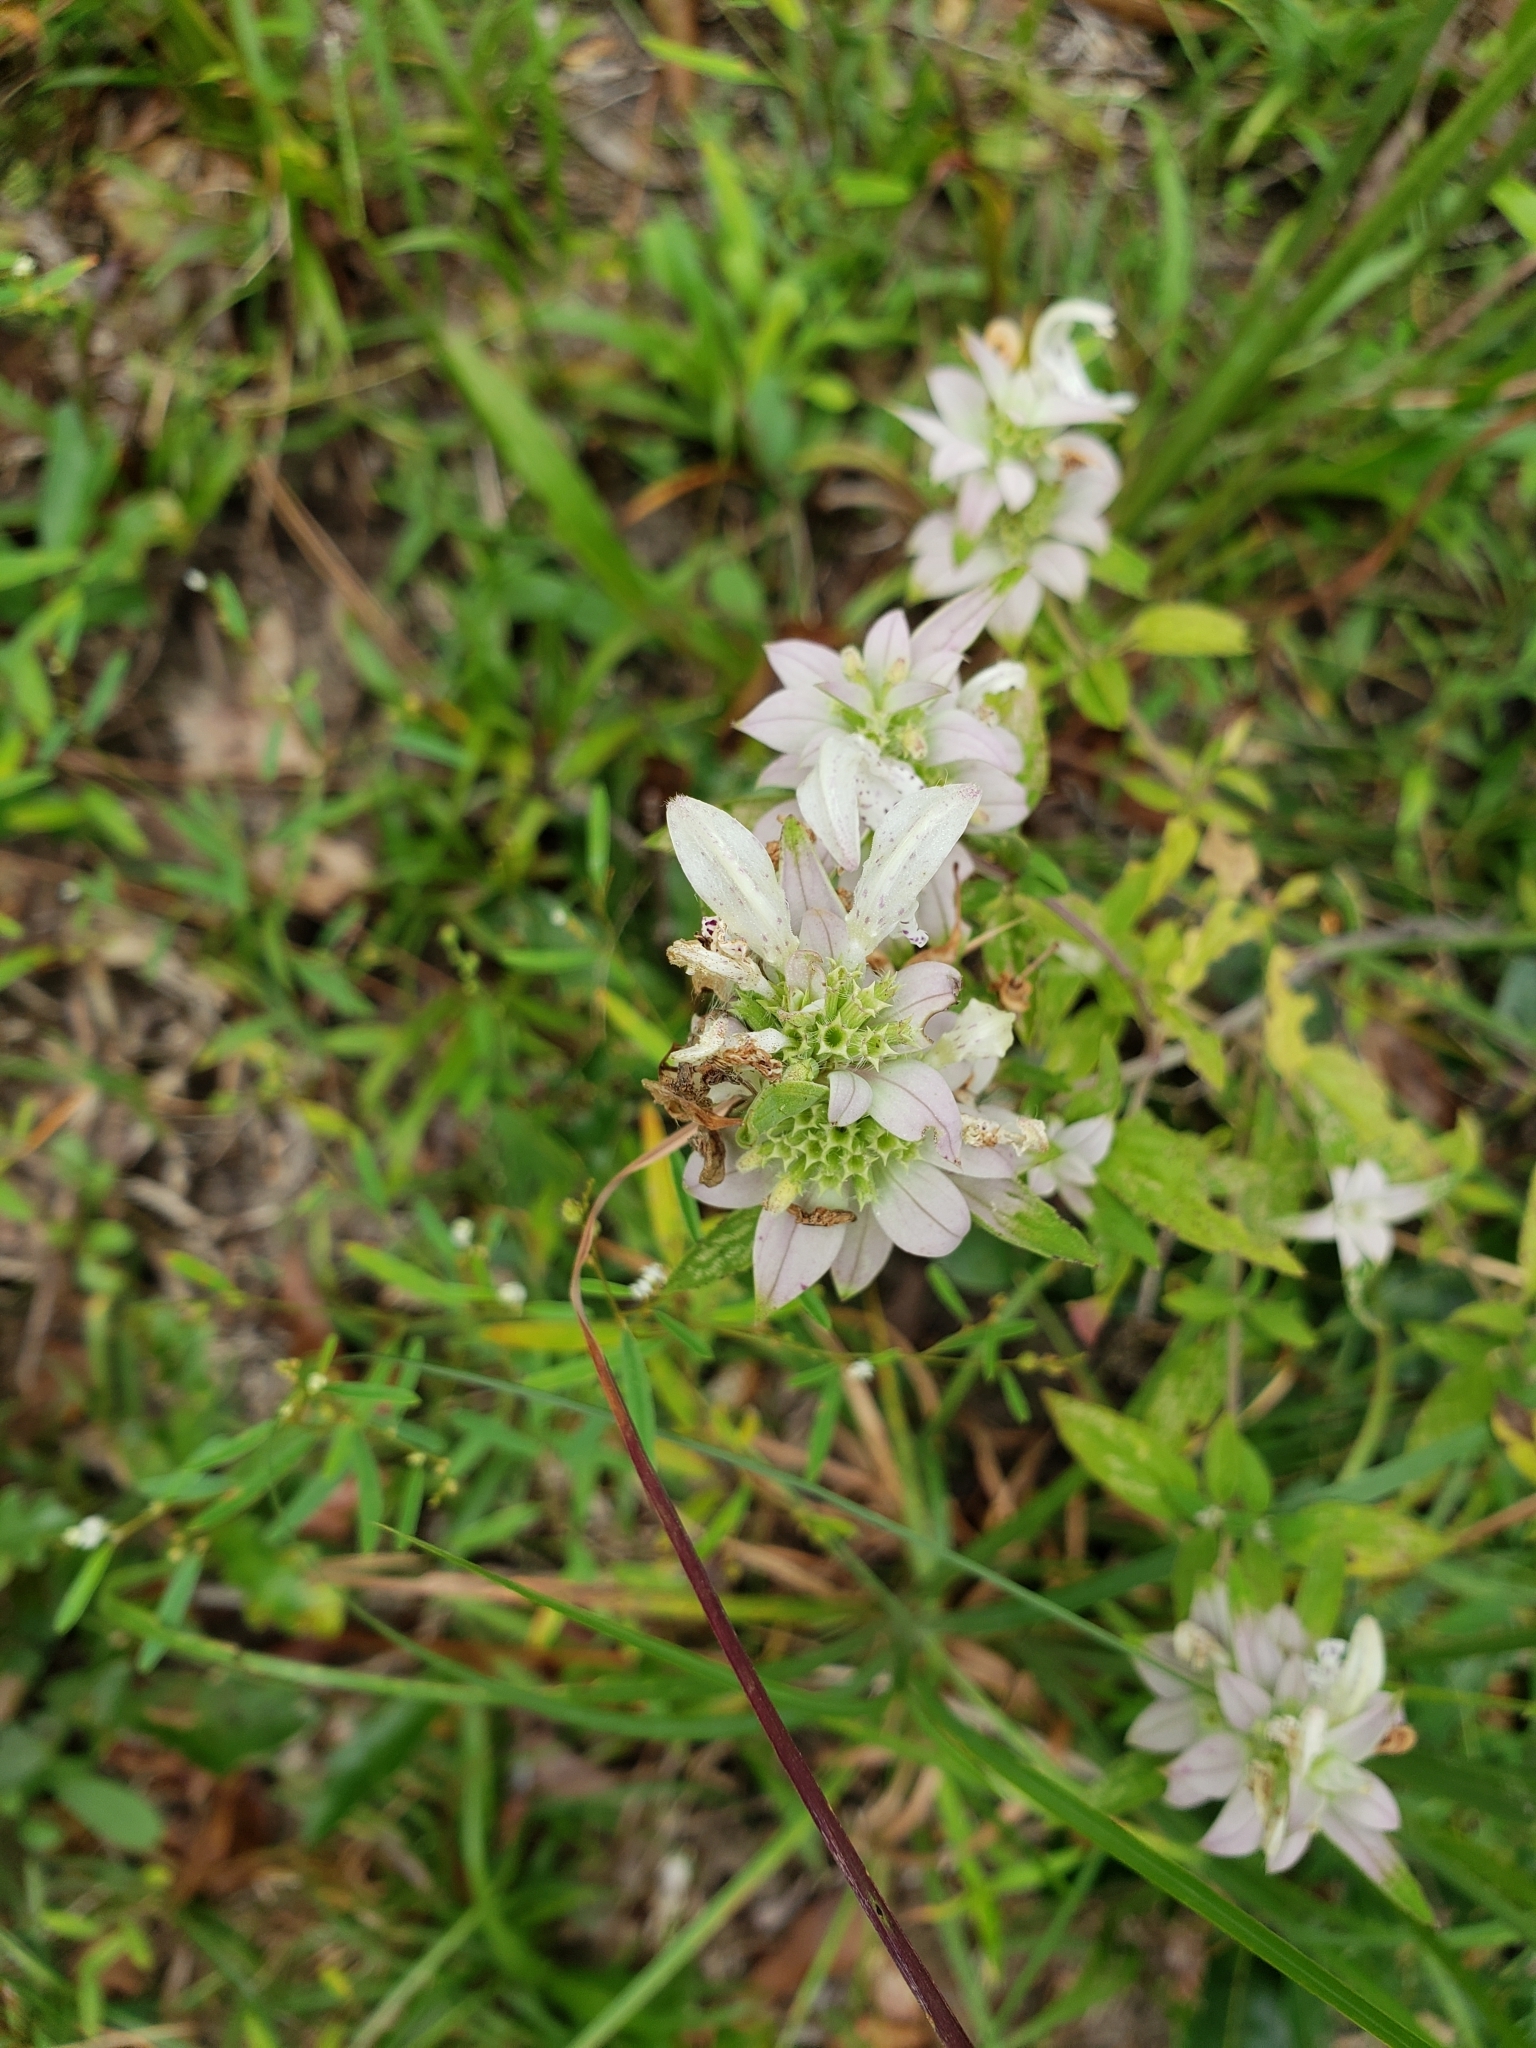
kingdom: Plantae
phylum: Tracheophyta
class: Magnoliopsida
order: Lamiales
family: Lamiaceae
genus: Monarda
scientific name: Monarda punctata
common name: Dotted monarda
